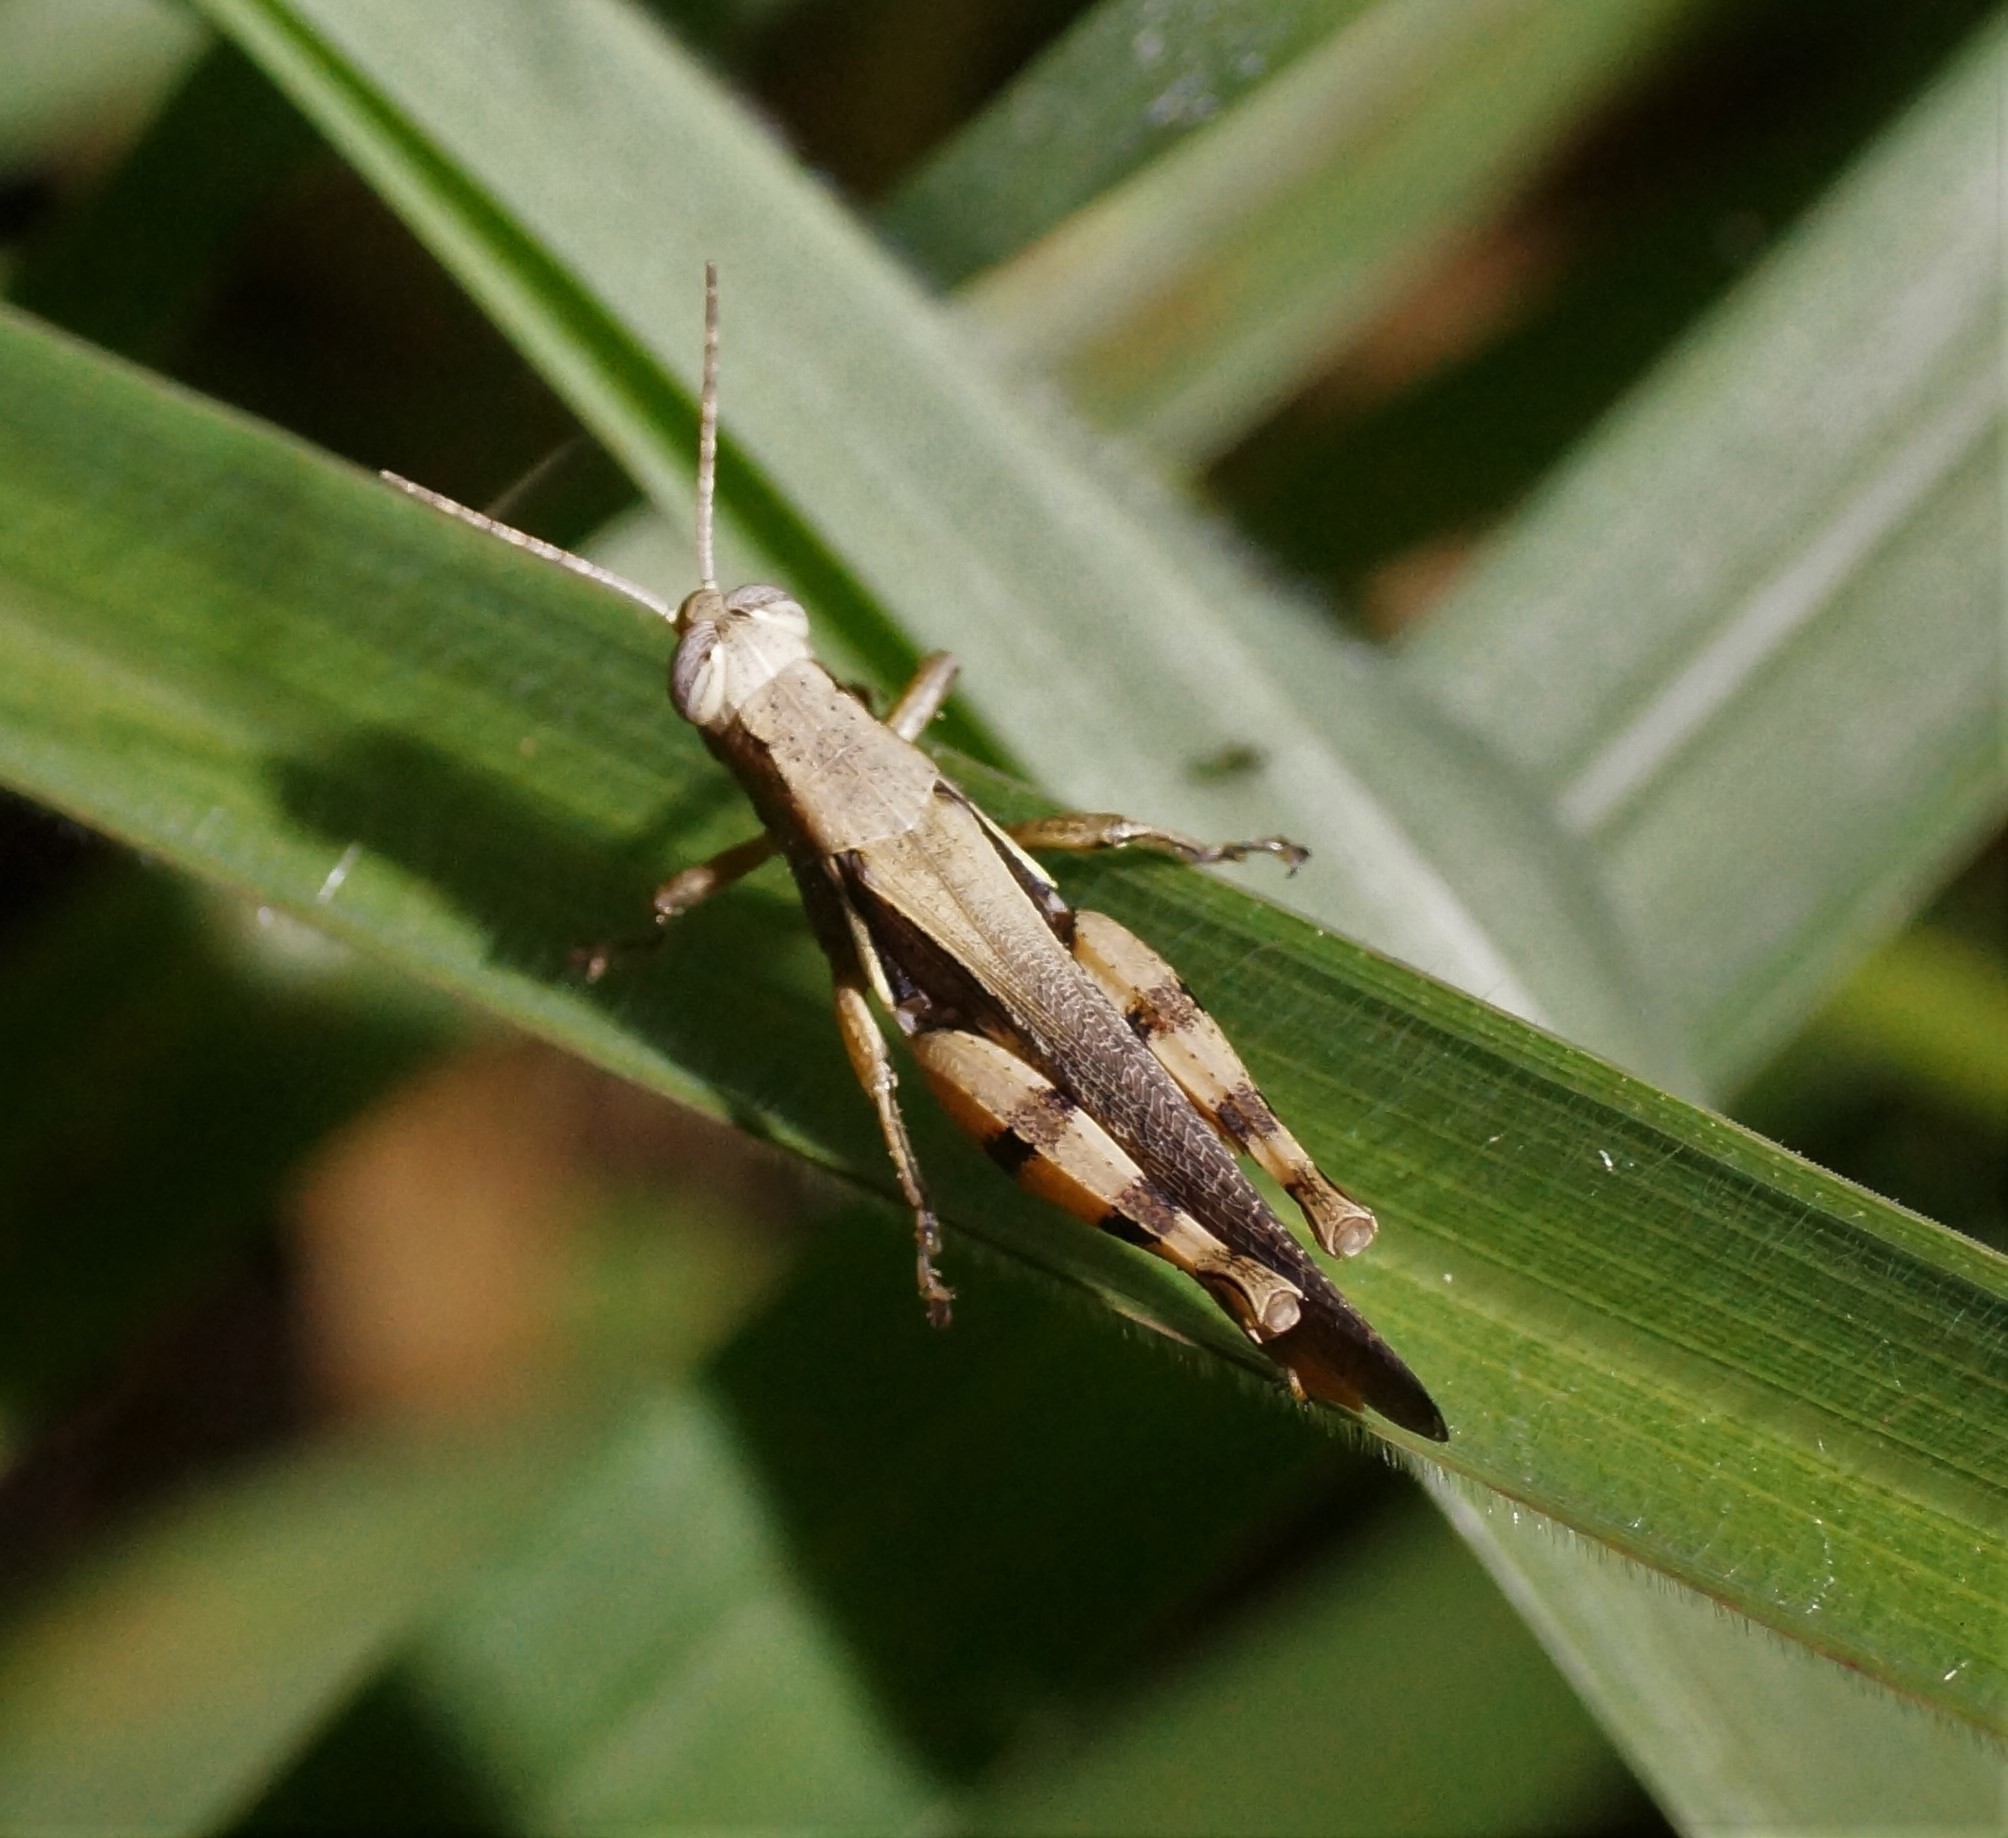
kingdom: Animalia
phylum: Arthropoda
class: Insecta
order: Orthoptera
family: Acrididae
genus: Stenocatantops
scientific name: Stenocatantops angustifrons
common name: Common tropical sharptail
